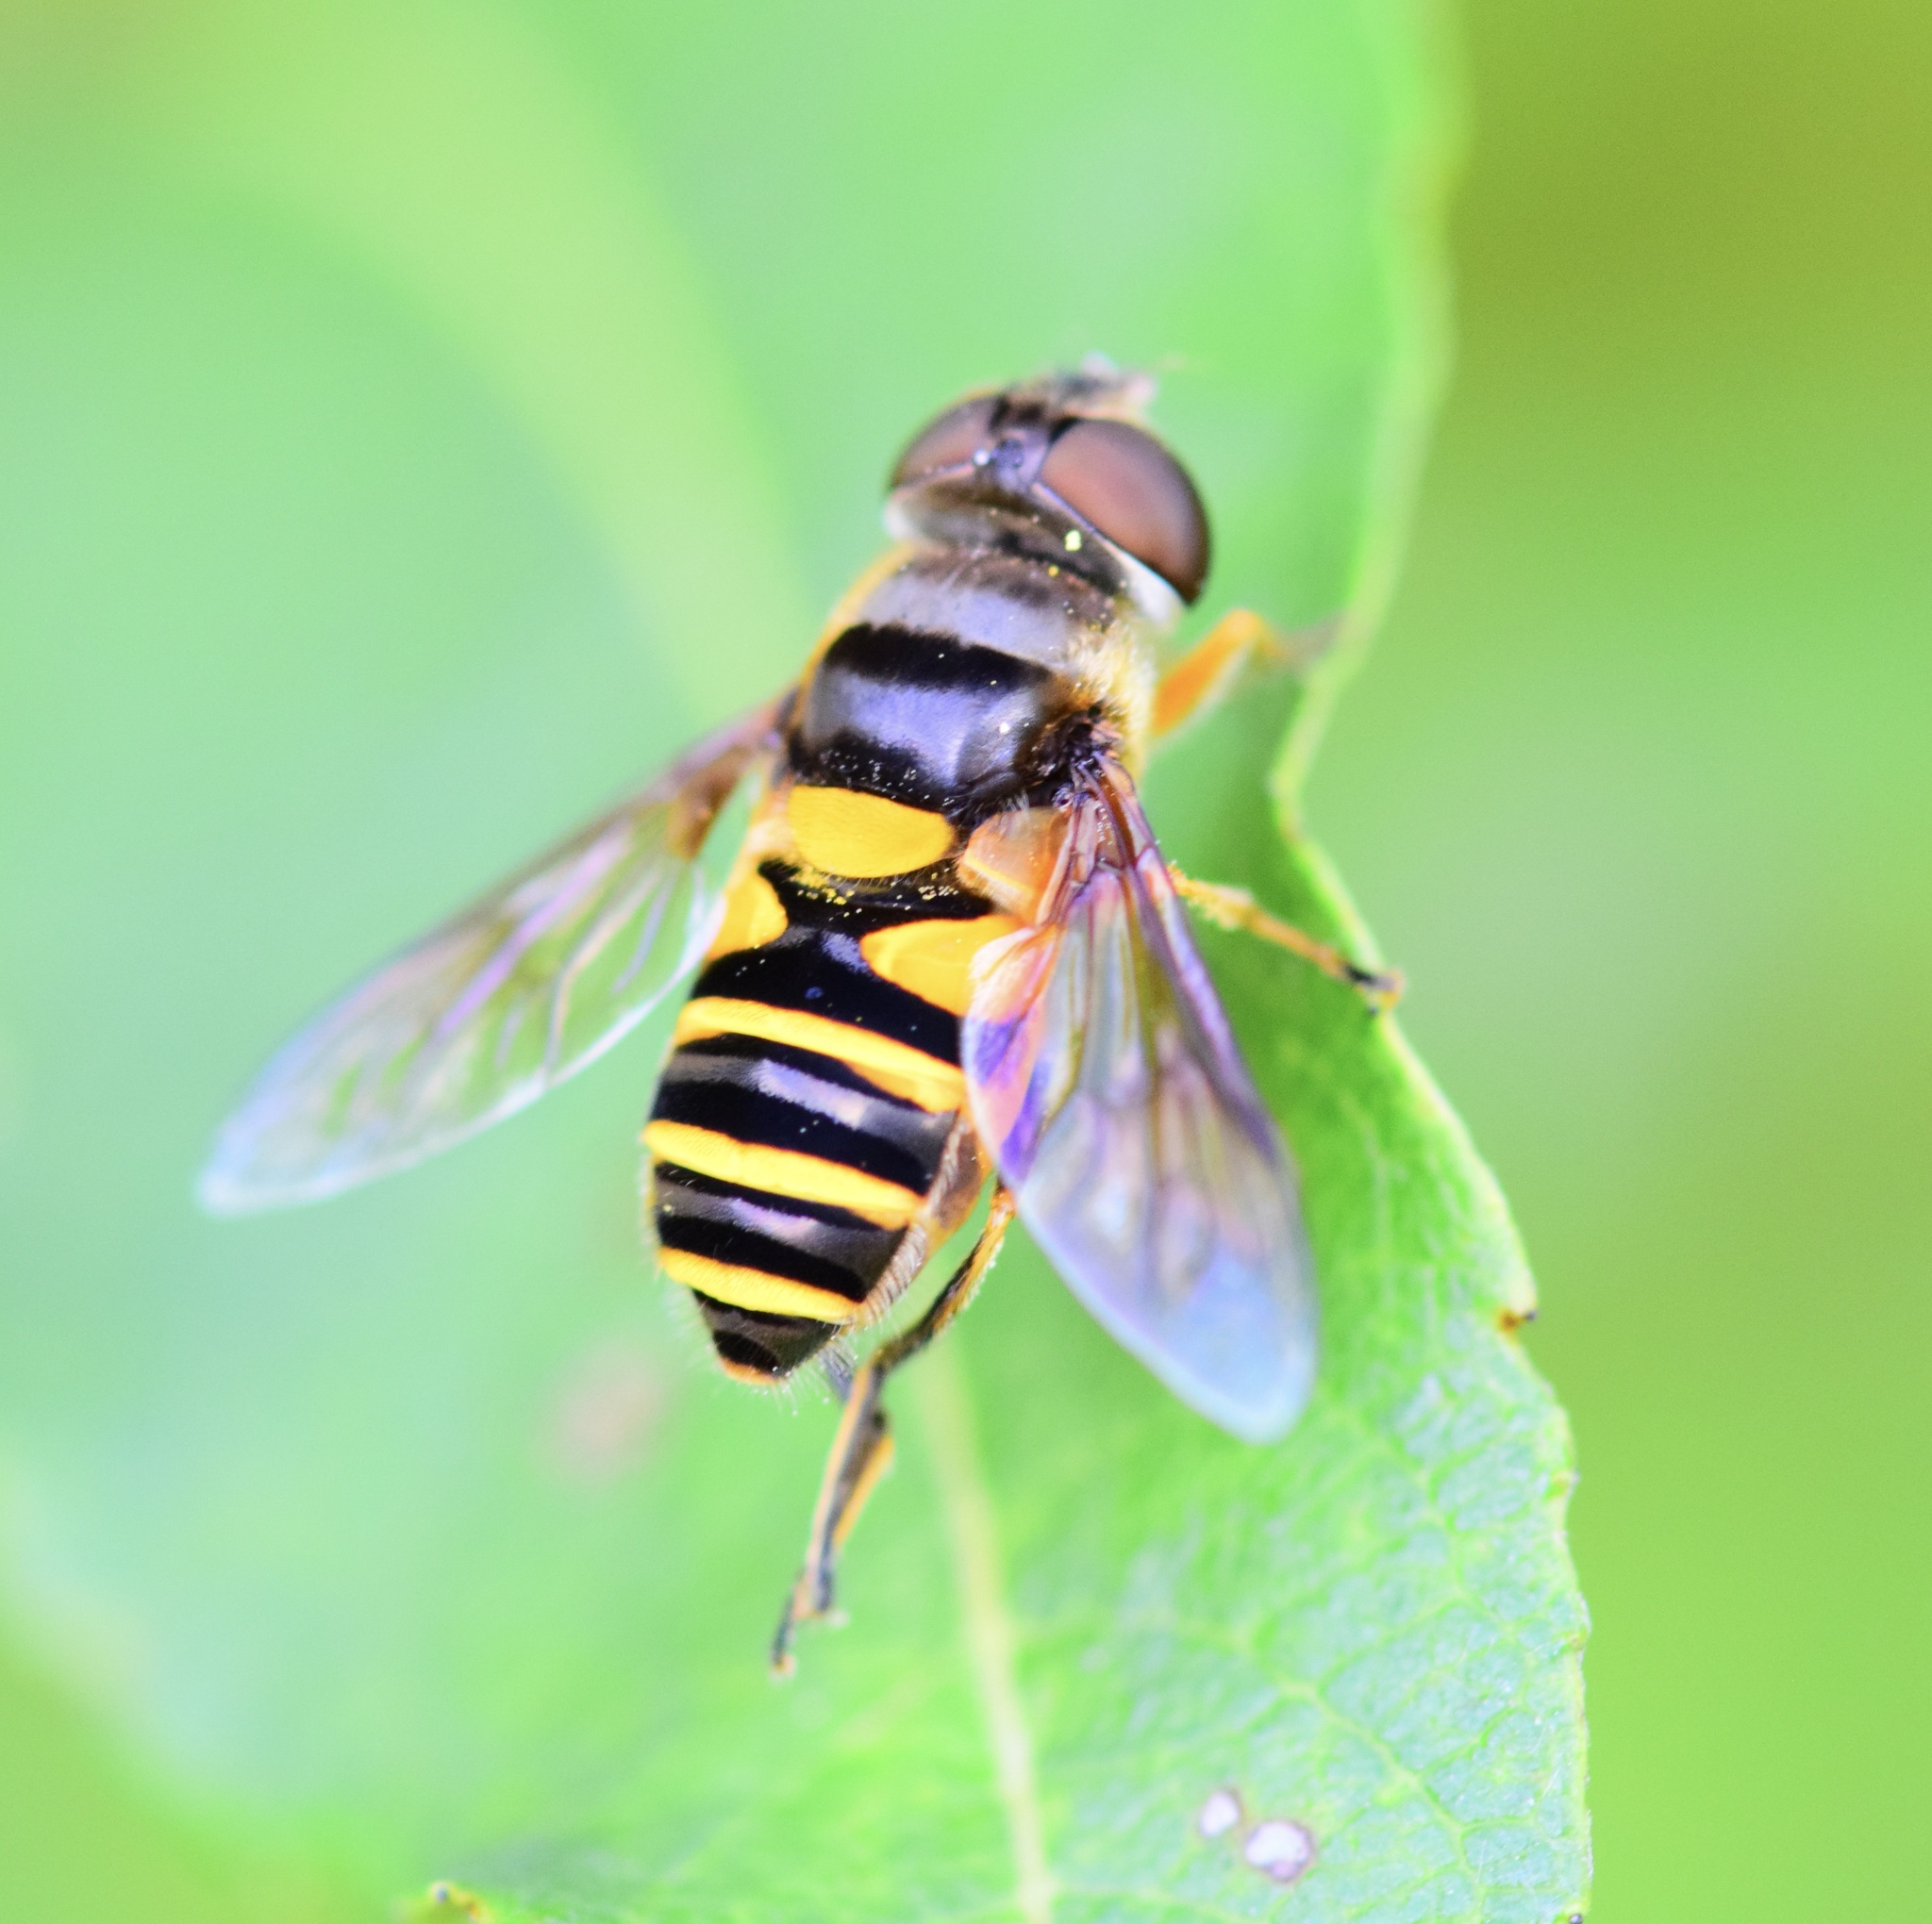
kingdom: Animalia
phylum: Arthropoda
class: Insecta
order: Diptera
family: Syrphidae
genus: Eristalis
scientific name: Eristalis transversa
